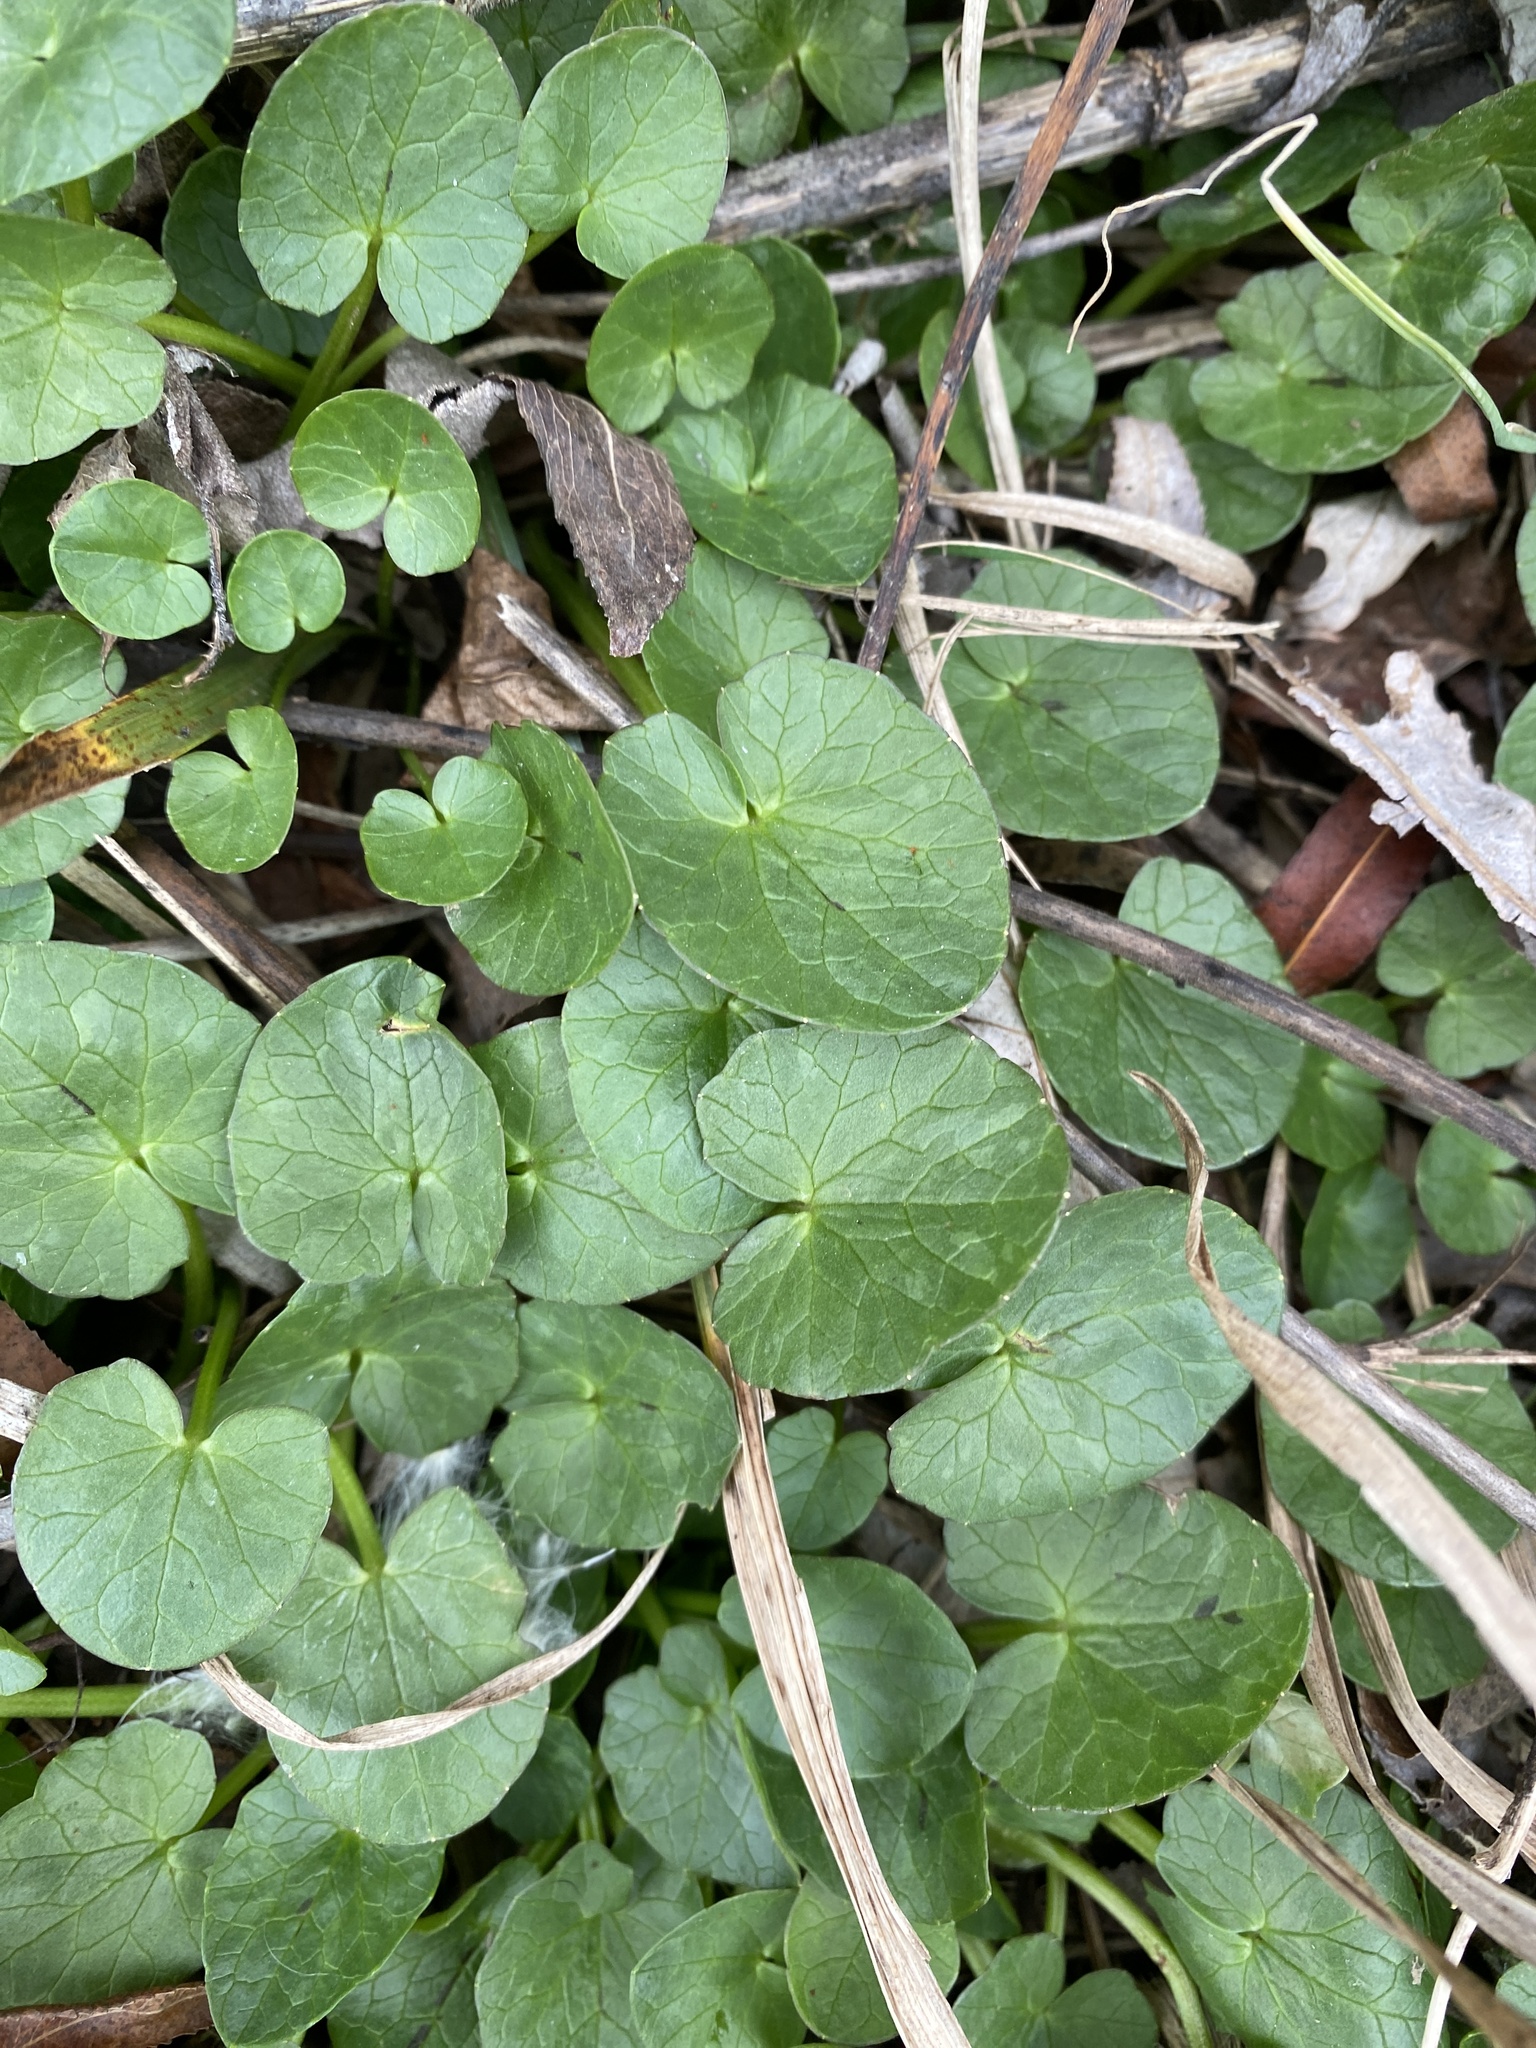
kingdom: Plantae
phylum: Tracheophyta
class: Magnoliopsida
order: Ranunculales
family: Ranunculaceae
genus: Ficaria
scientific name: Ficaria verna
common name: Lesser celandine
